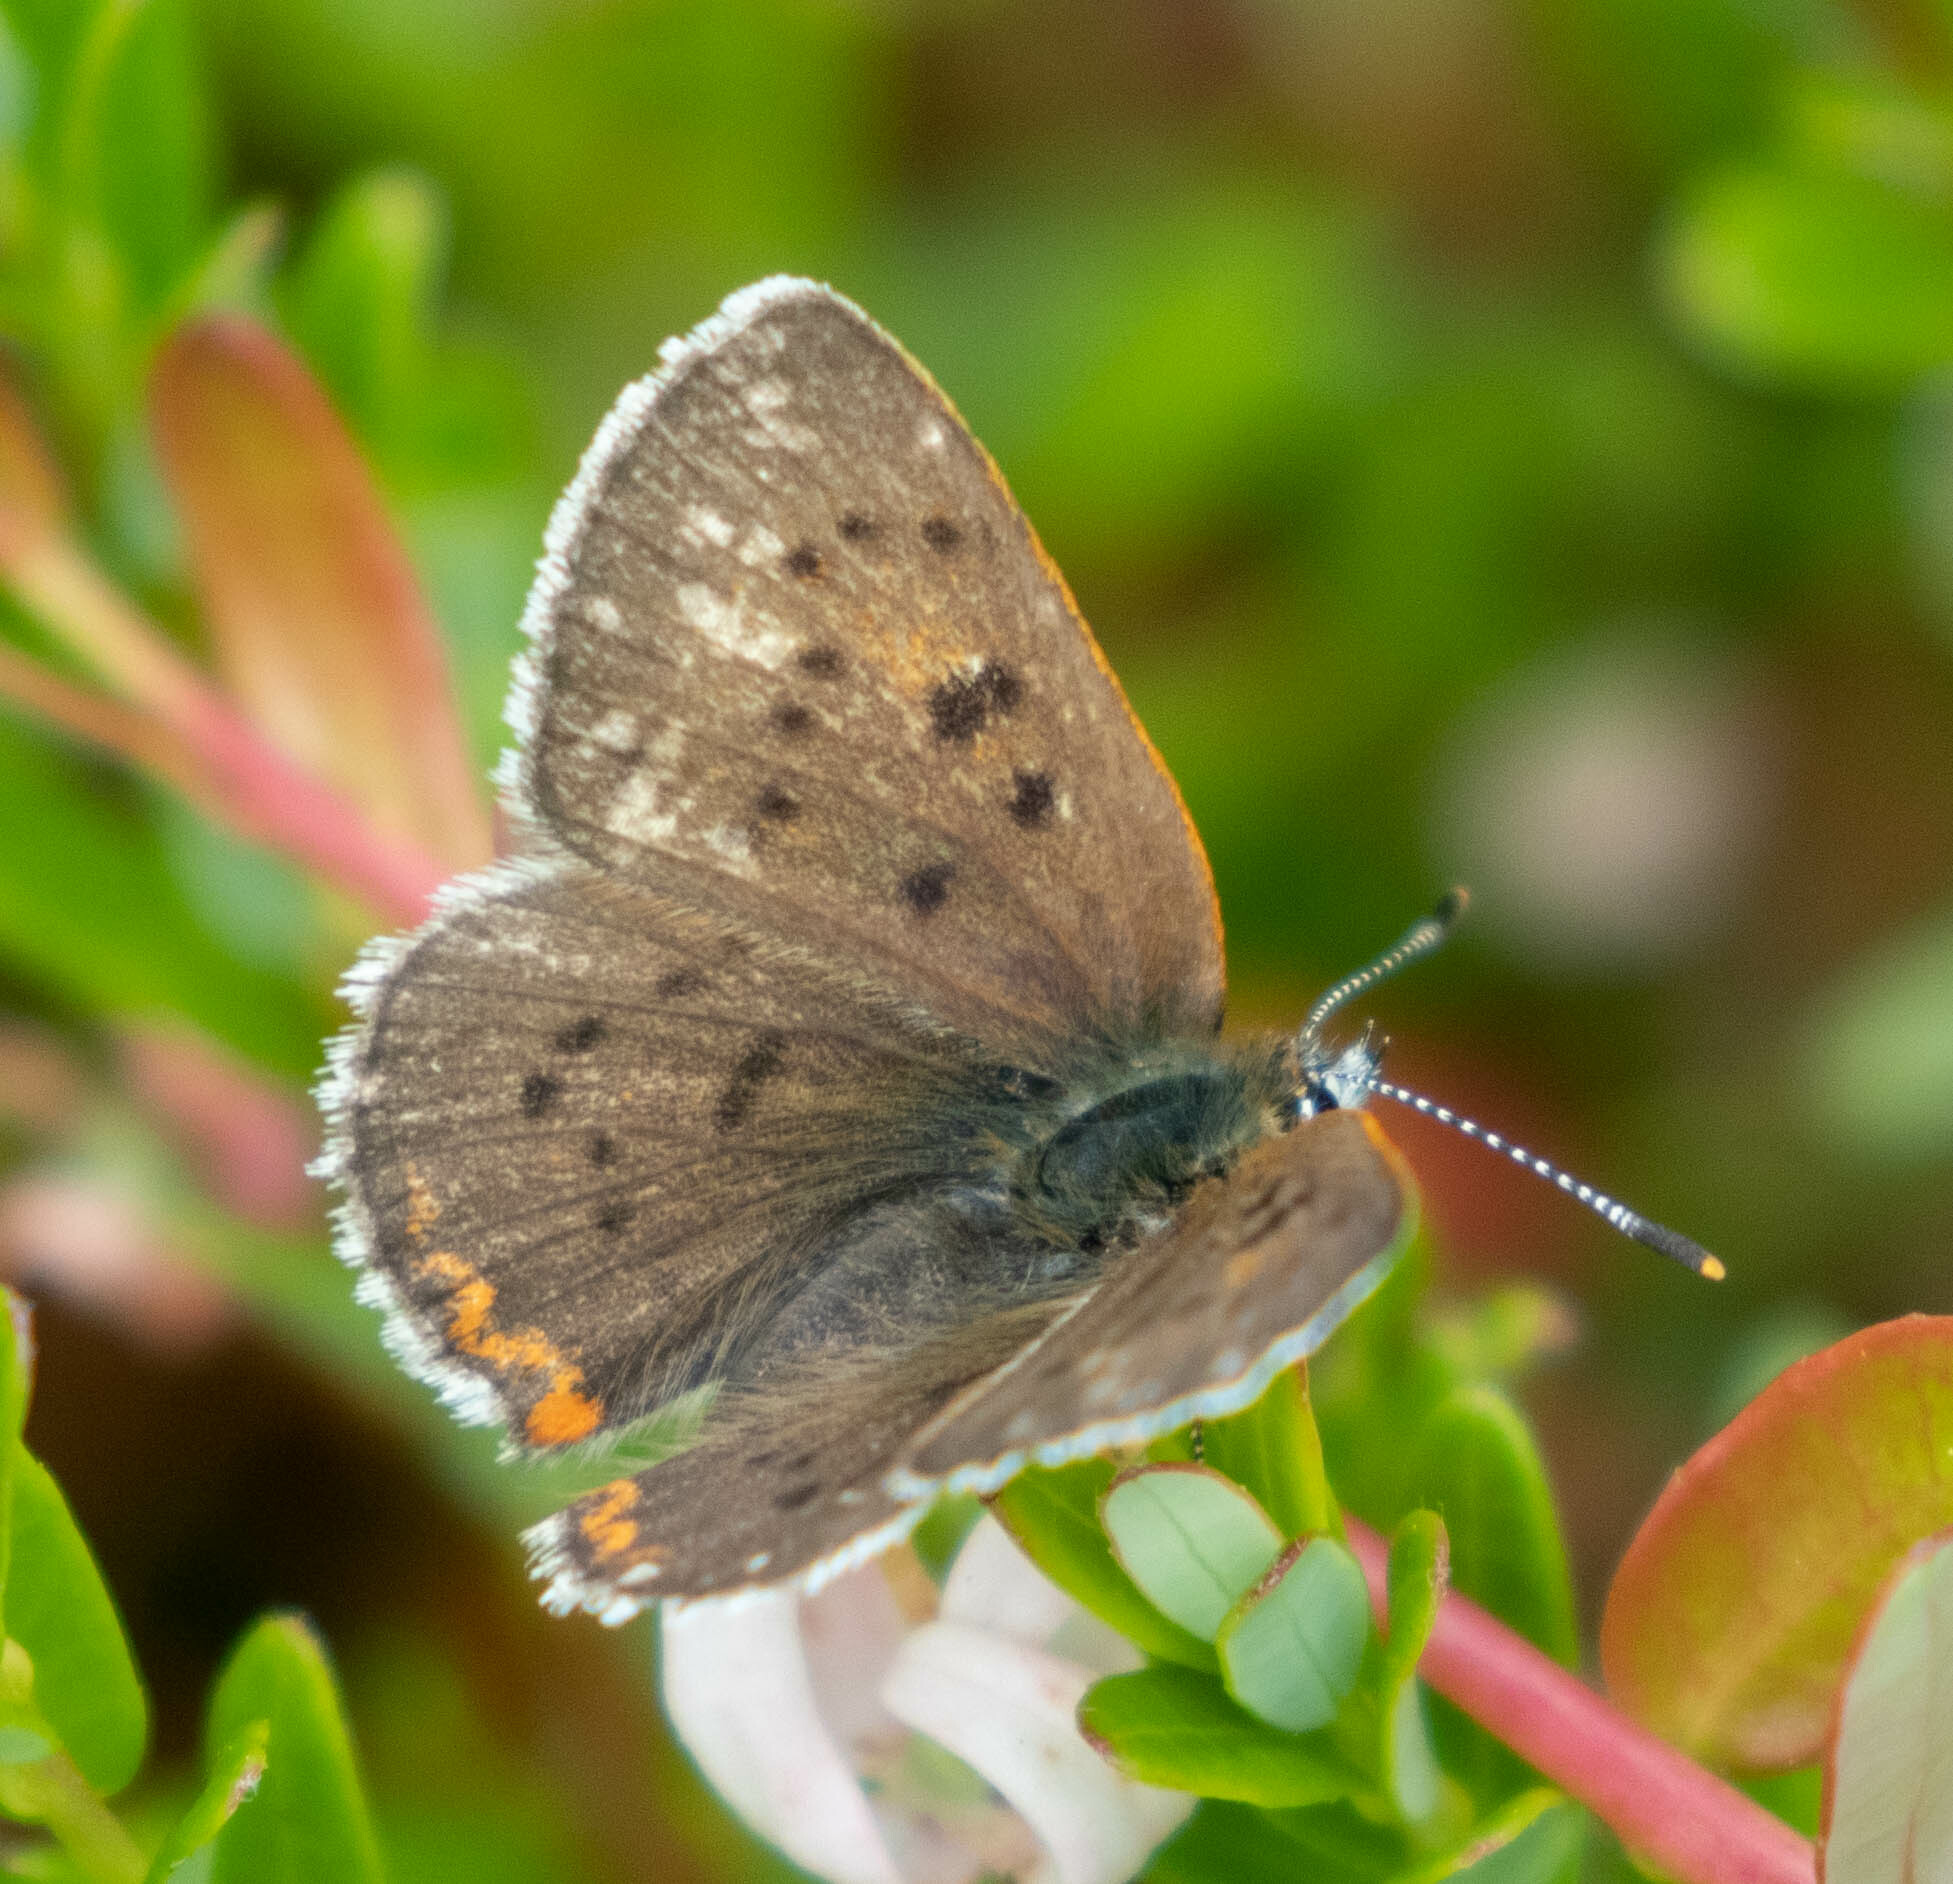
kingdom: Animalia
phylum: Arthropoda
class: Insecta
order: Lepidoptera
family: Lycaenidae
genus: Tharsalea
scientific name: Tharsalea epixanthe
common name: Bog copper
